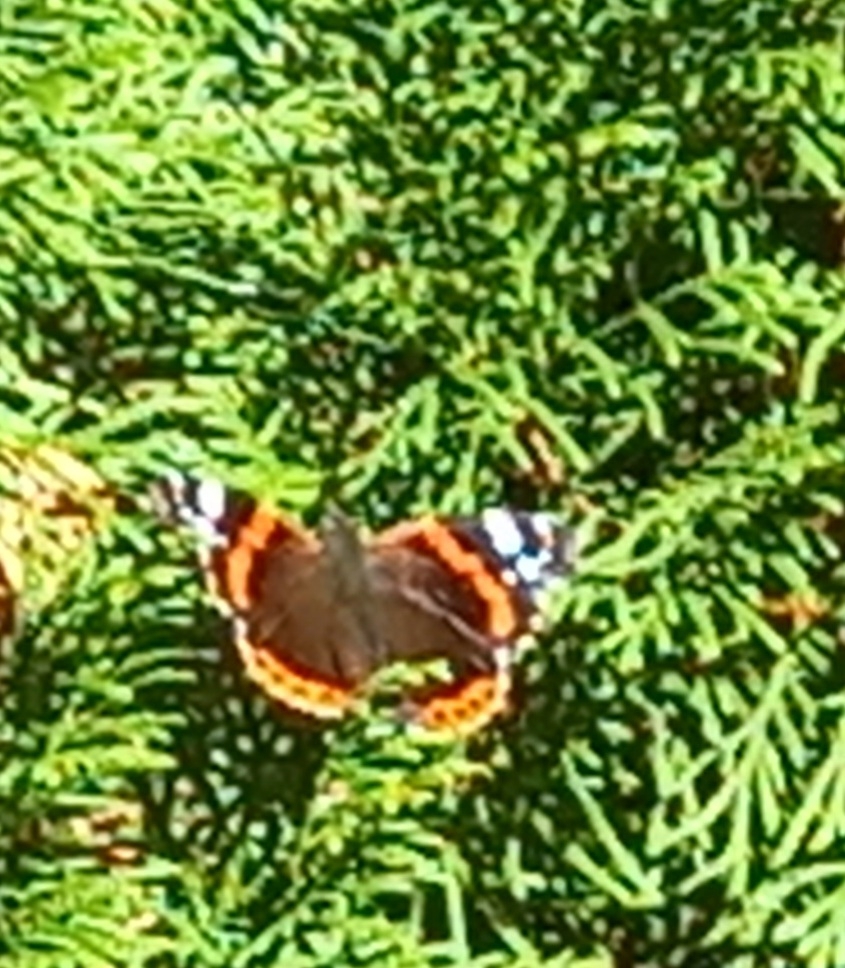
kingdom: Animalia
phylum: Arthropoda
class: Insecta
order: Lepidoptera
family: Nymphalidae
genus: Vanessa
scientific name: Vanessa atalanta
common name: Red admiral
